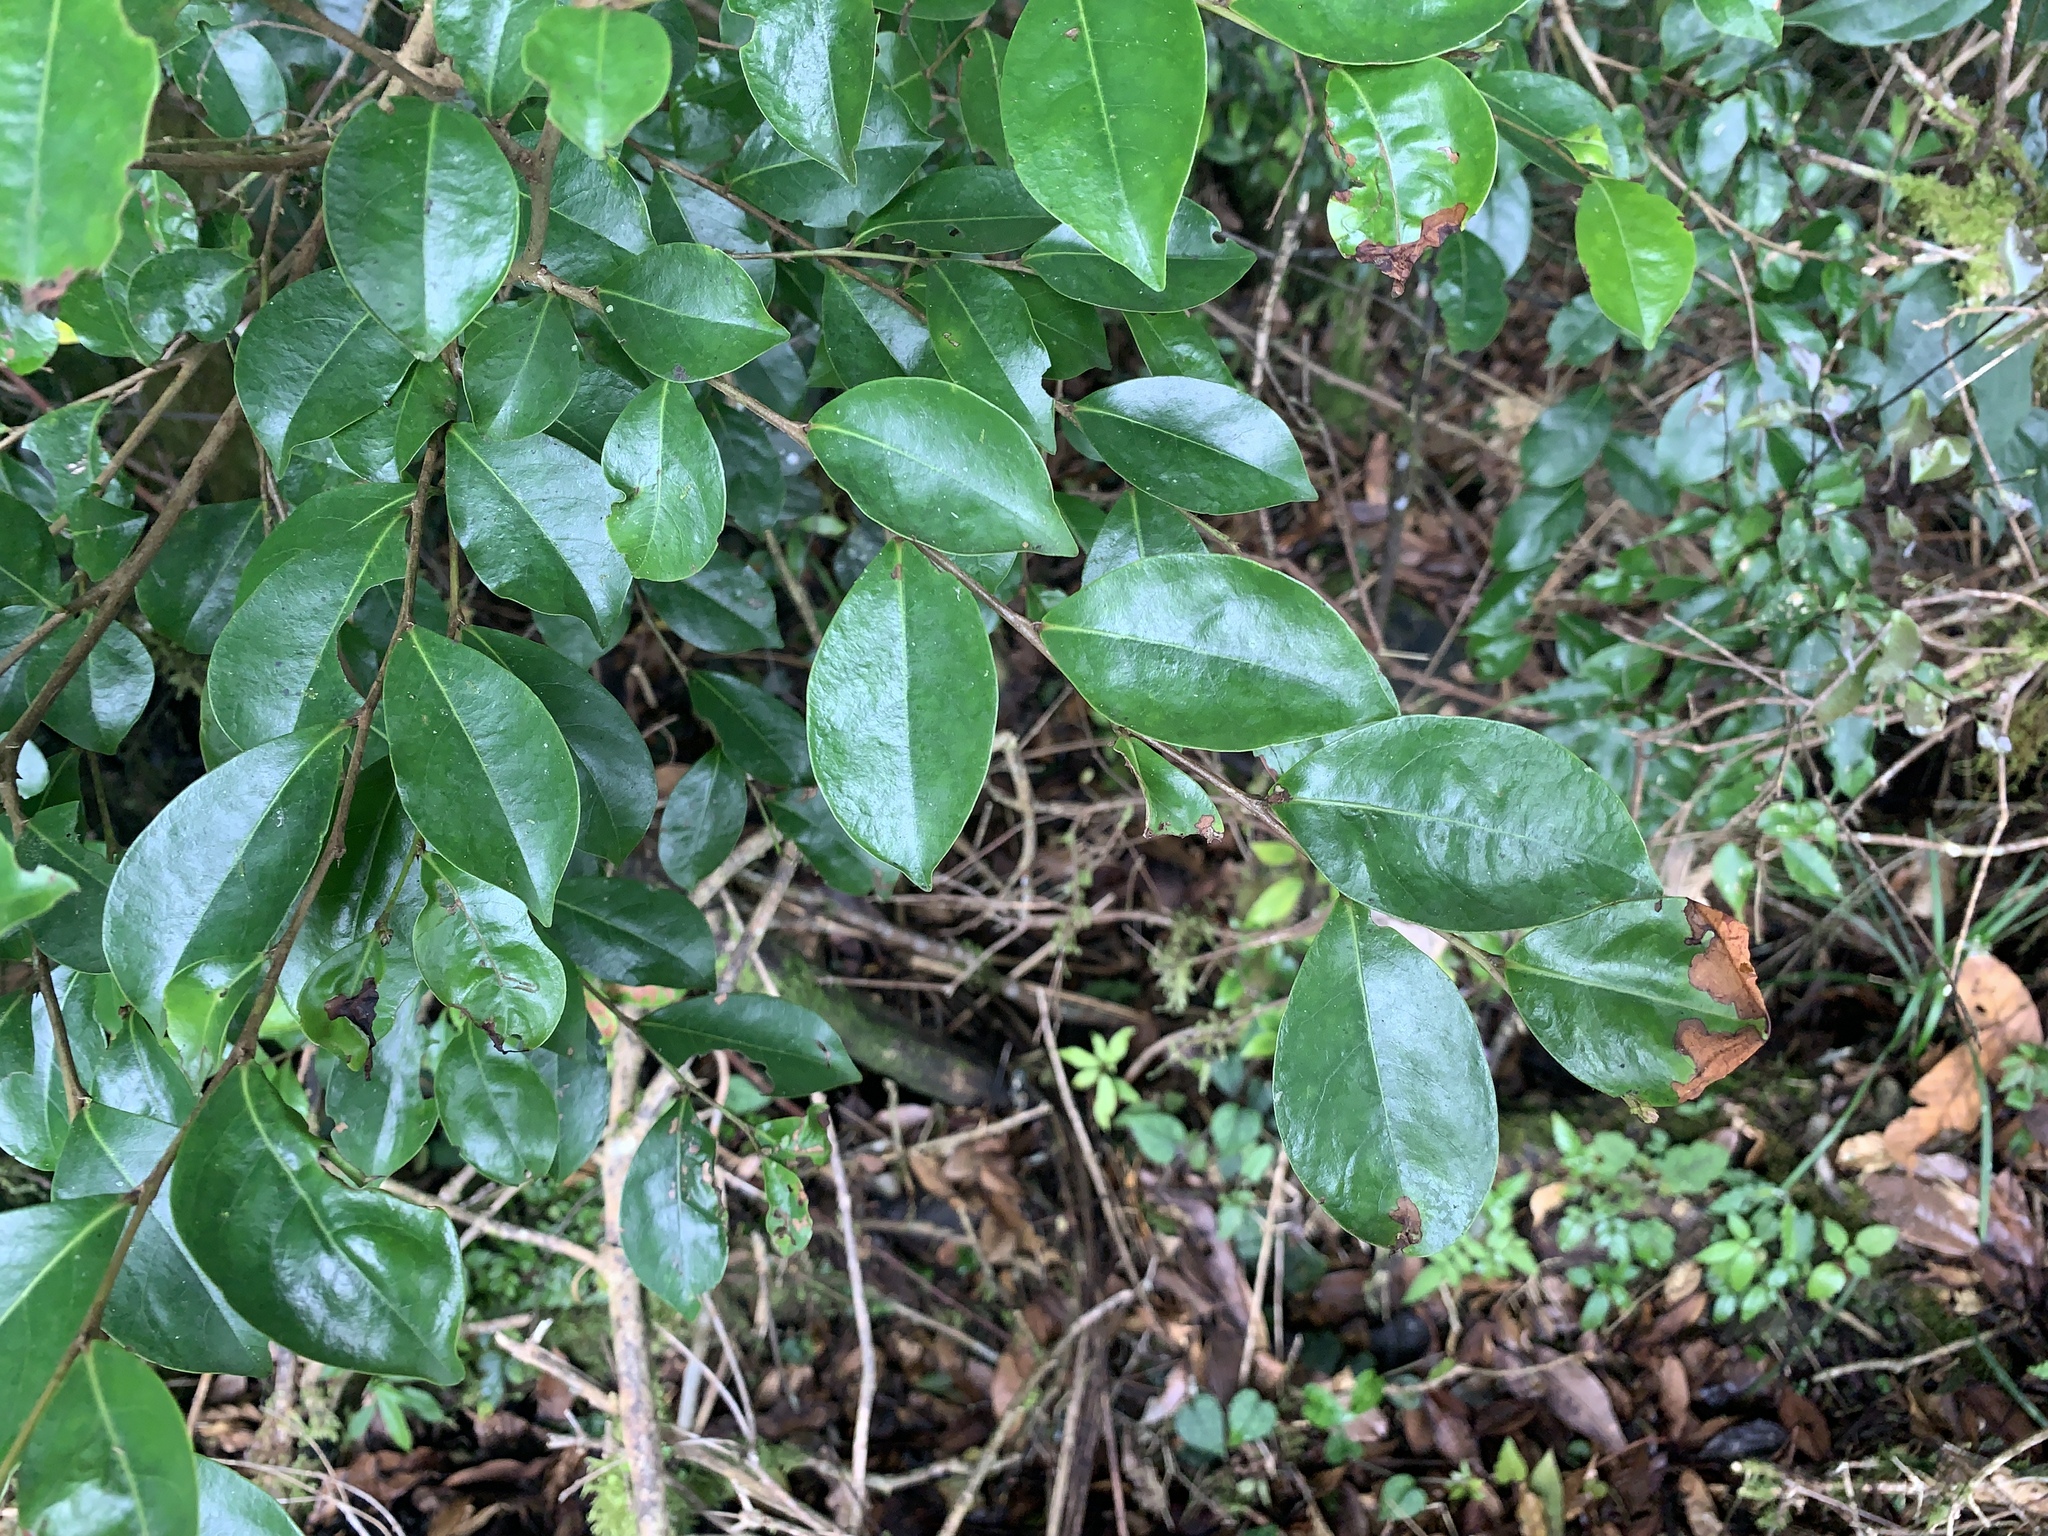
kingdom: Plantae
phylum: Tracheophyta
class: Magnoliopsida
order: Malpighiales
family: Phyllanthaceae
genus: Glochidion
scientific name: Glochidion rubrum
